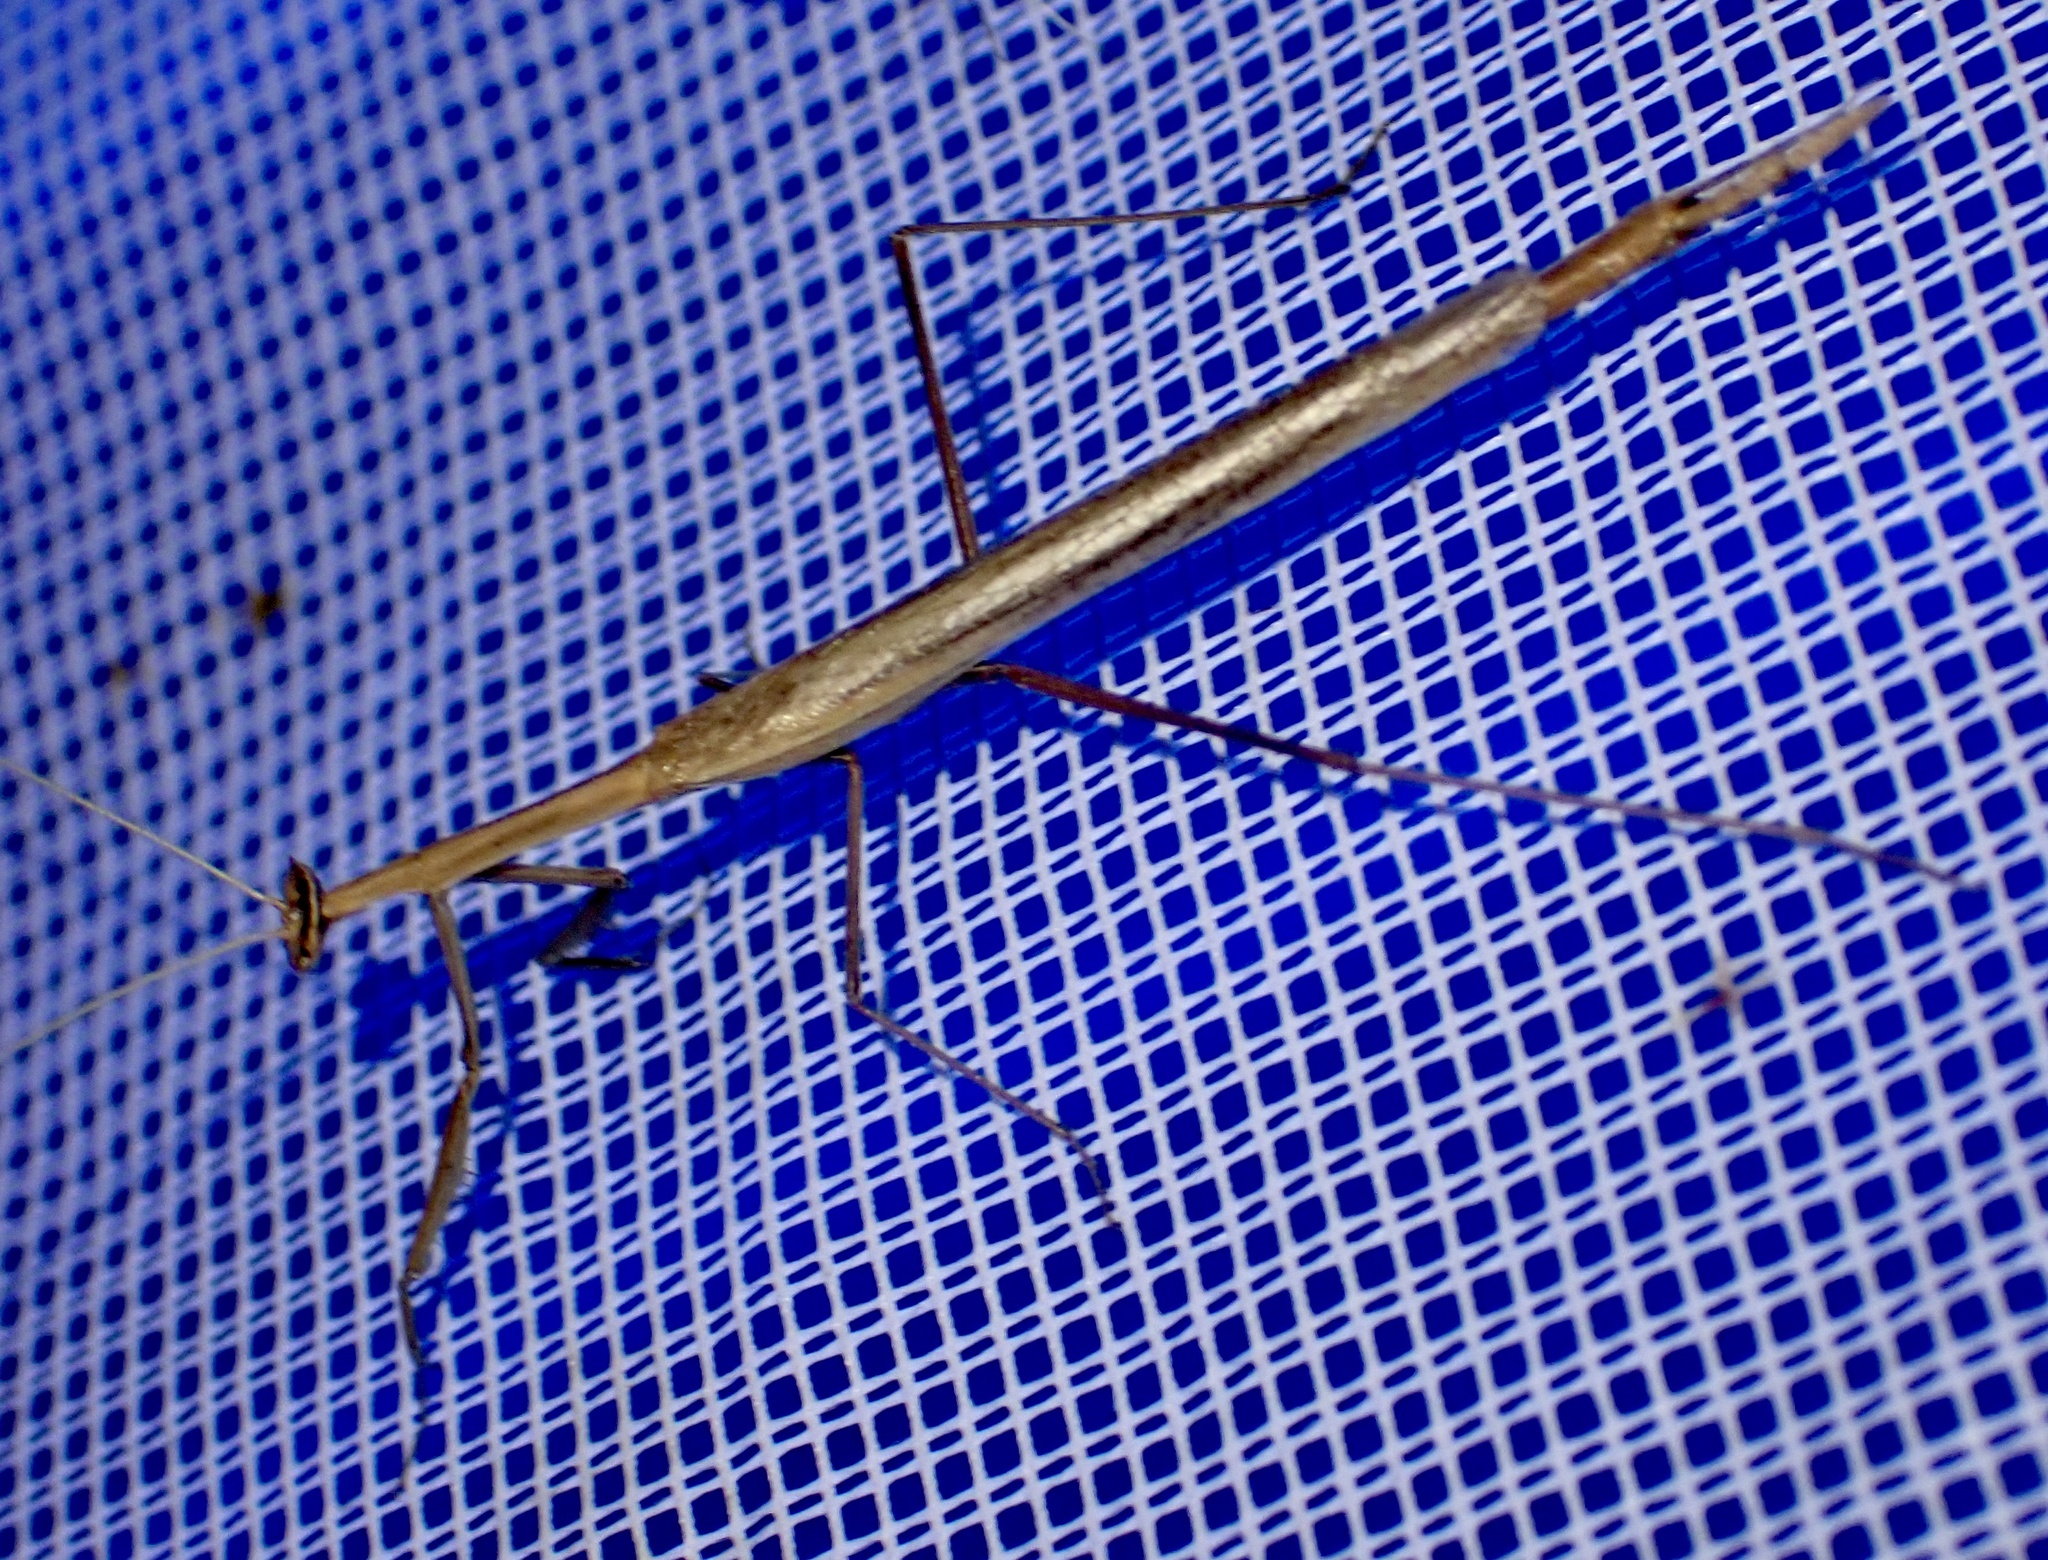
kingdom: Animalia
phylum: Arthropoda
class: Insecta
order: Mantodea
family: Toxoderidae
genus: Severinia
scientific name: Severinia granulata
